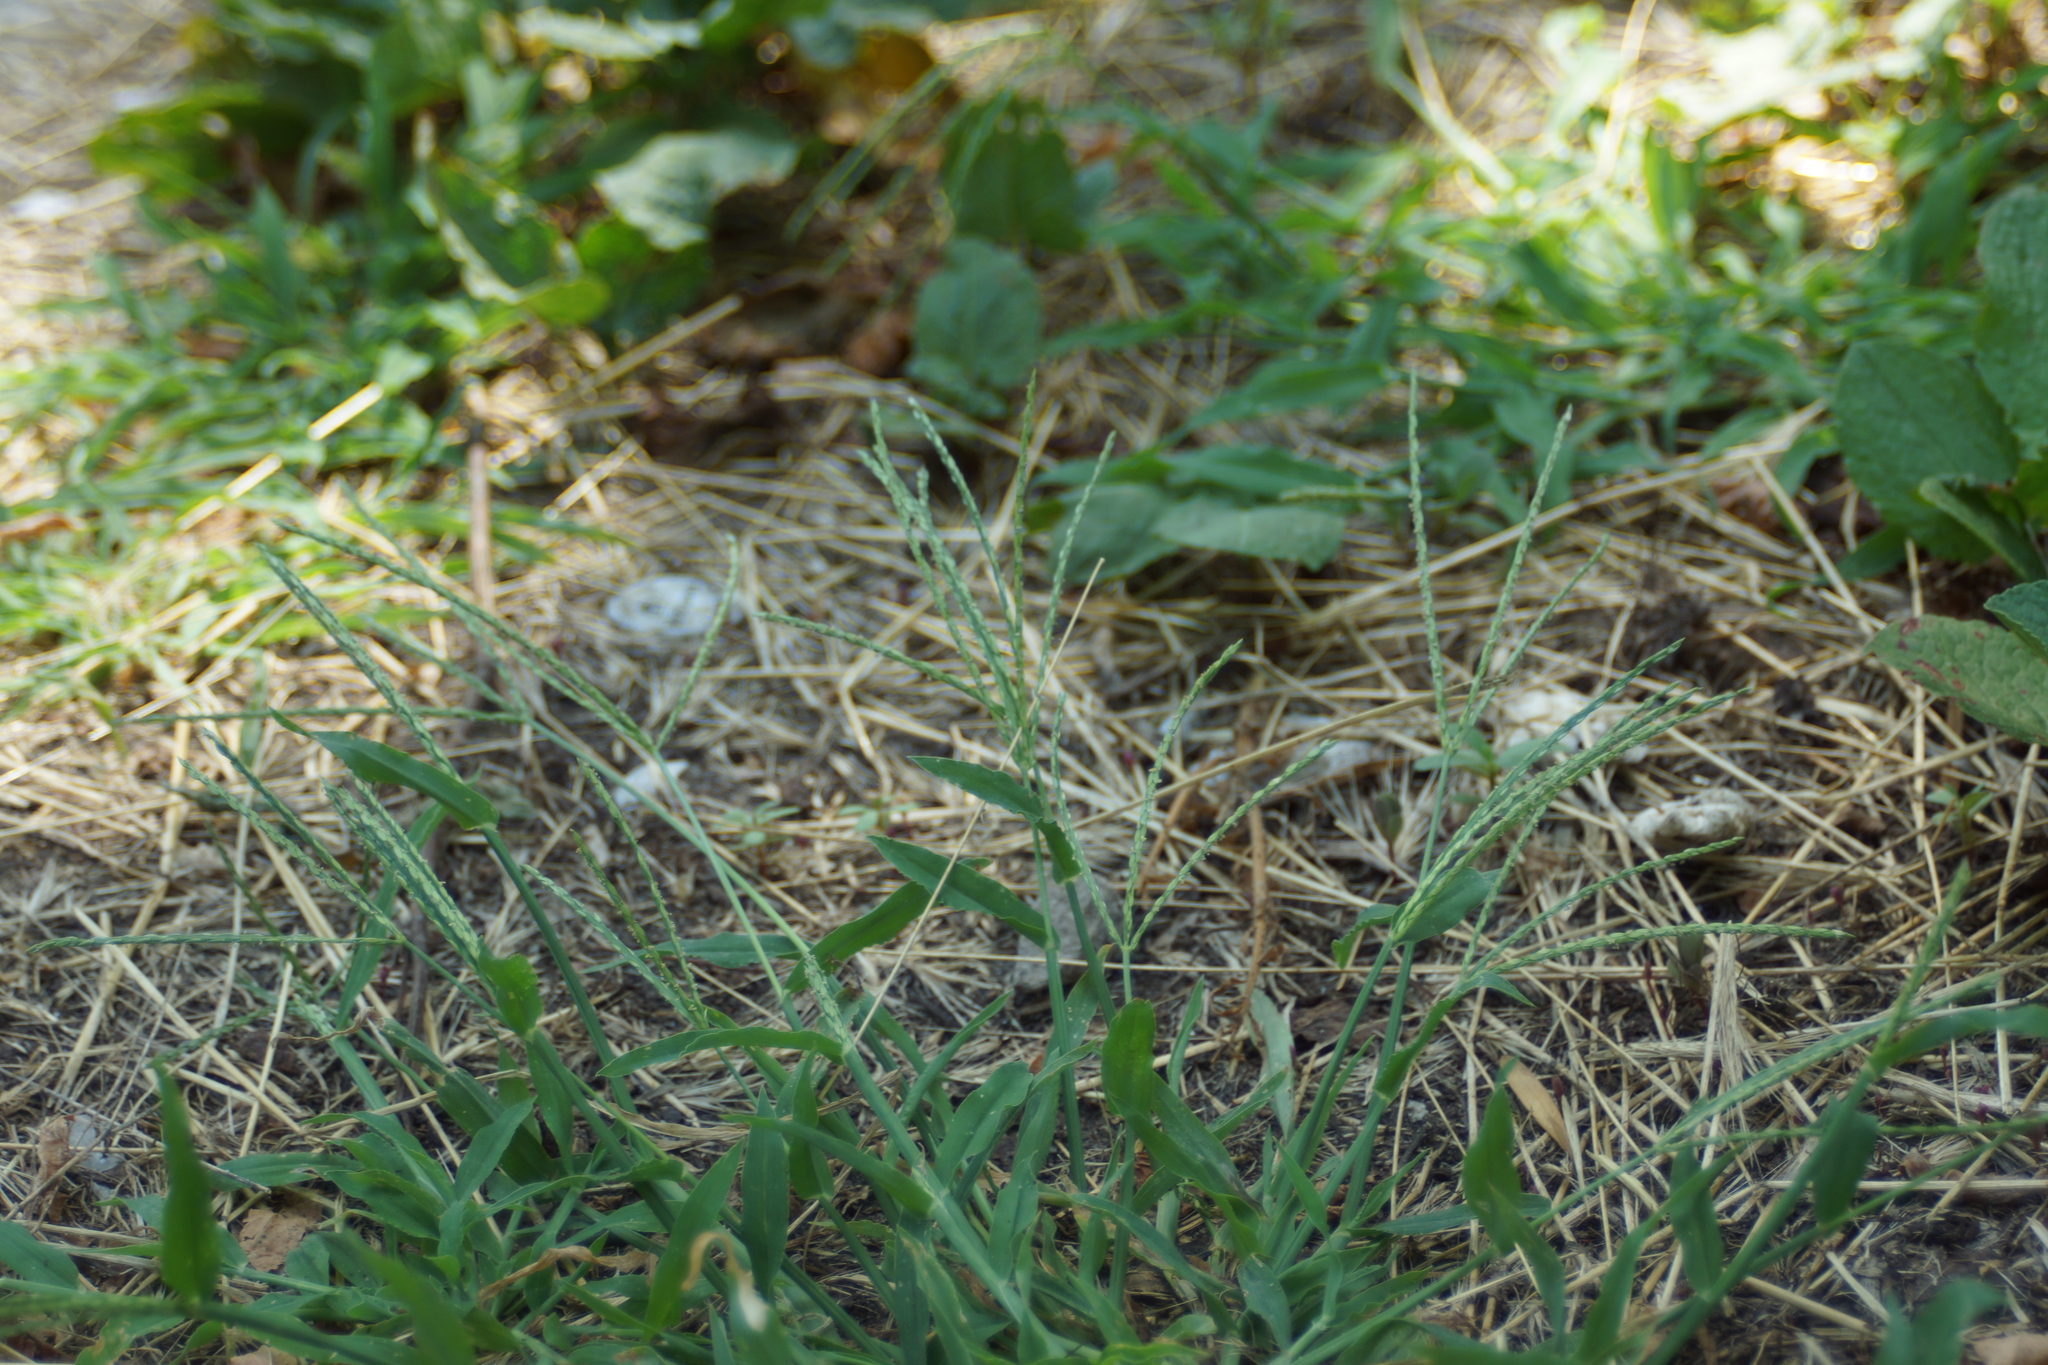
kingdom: Plantae
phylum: Tracheophyta
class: Liliopsida
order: Poales
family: Poaceae
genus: Digitaria
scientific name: Digitaria sanguinalis
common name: Hairy crabgrass
